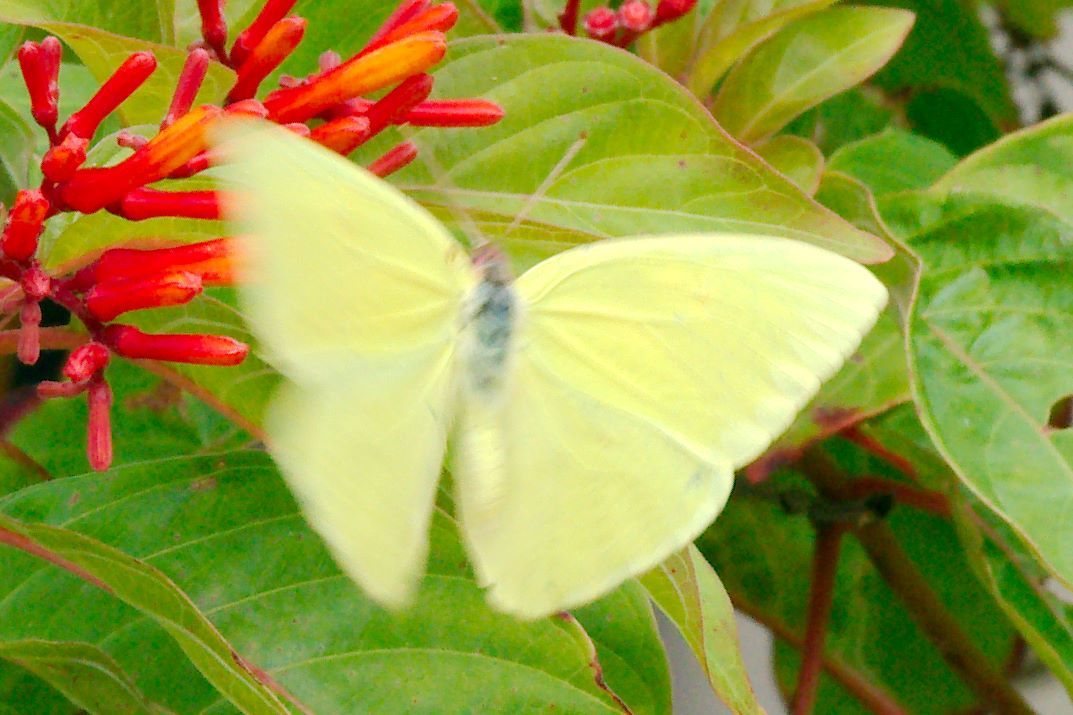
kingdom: Animalia
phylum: Arthropoda
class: Insecta
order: Lepidoptera
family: Pieridae
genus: Phoebis
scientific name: Phoebis sennae
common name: Cloudless sulphur
